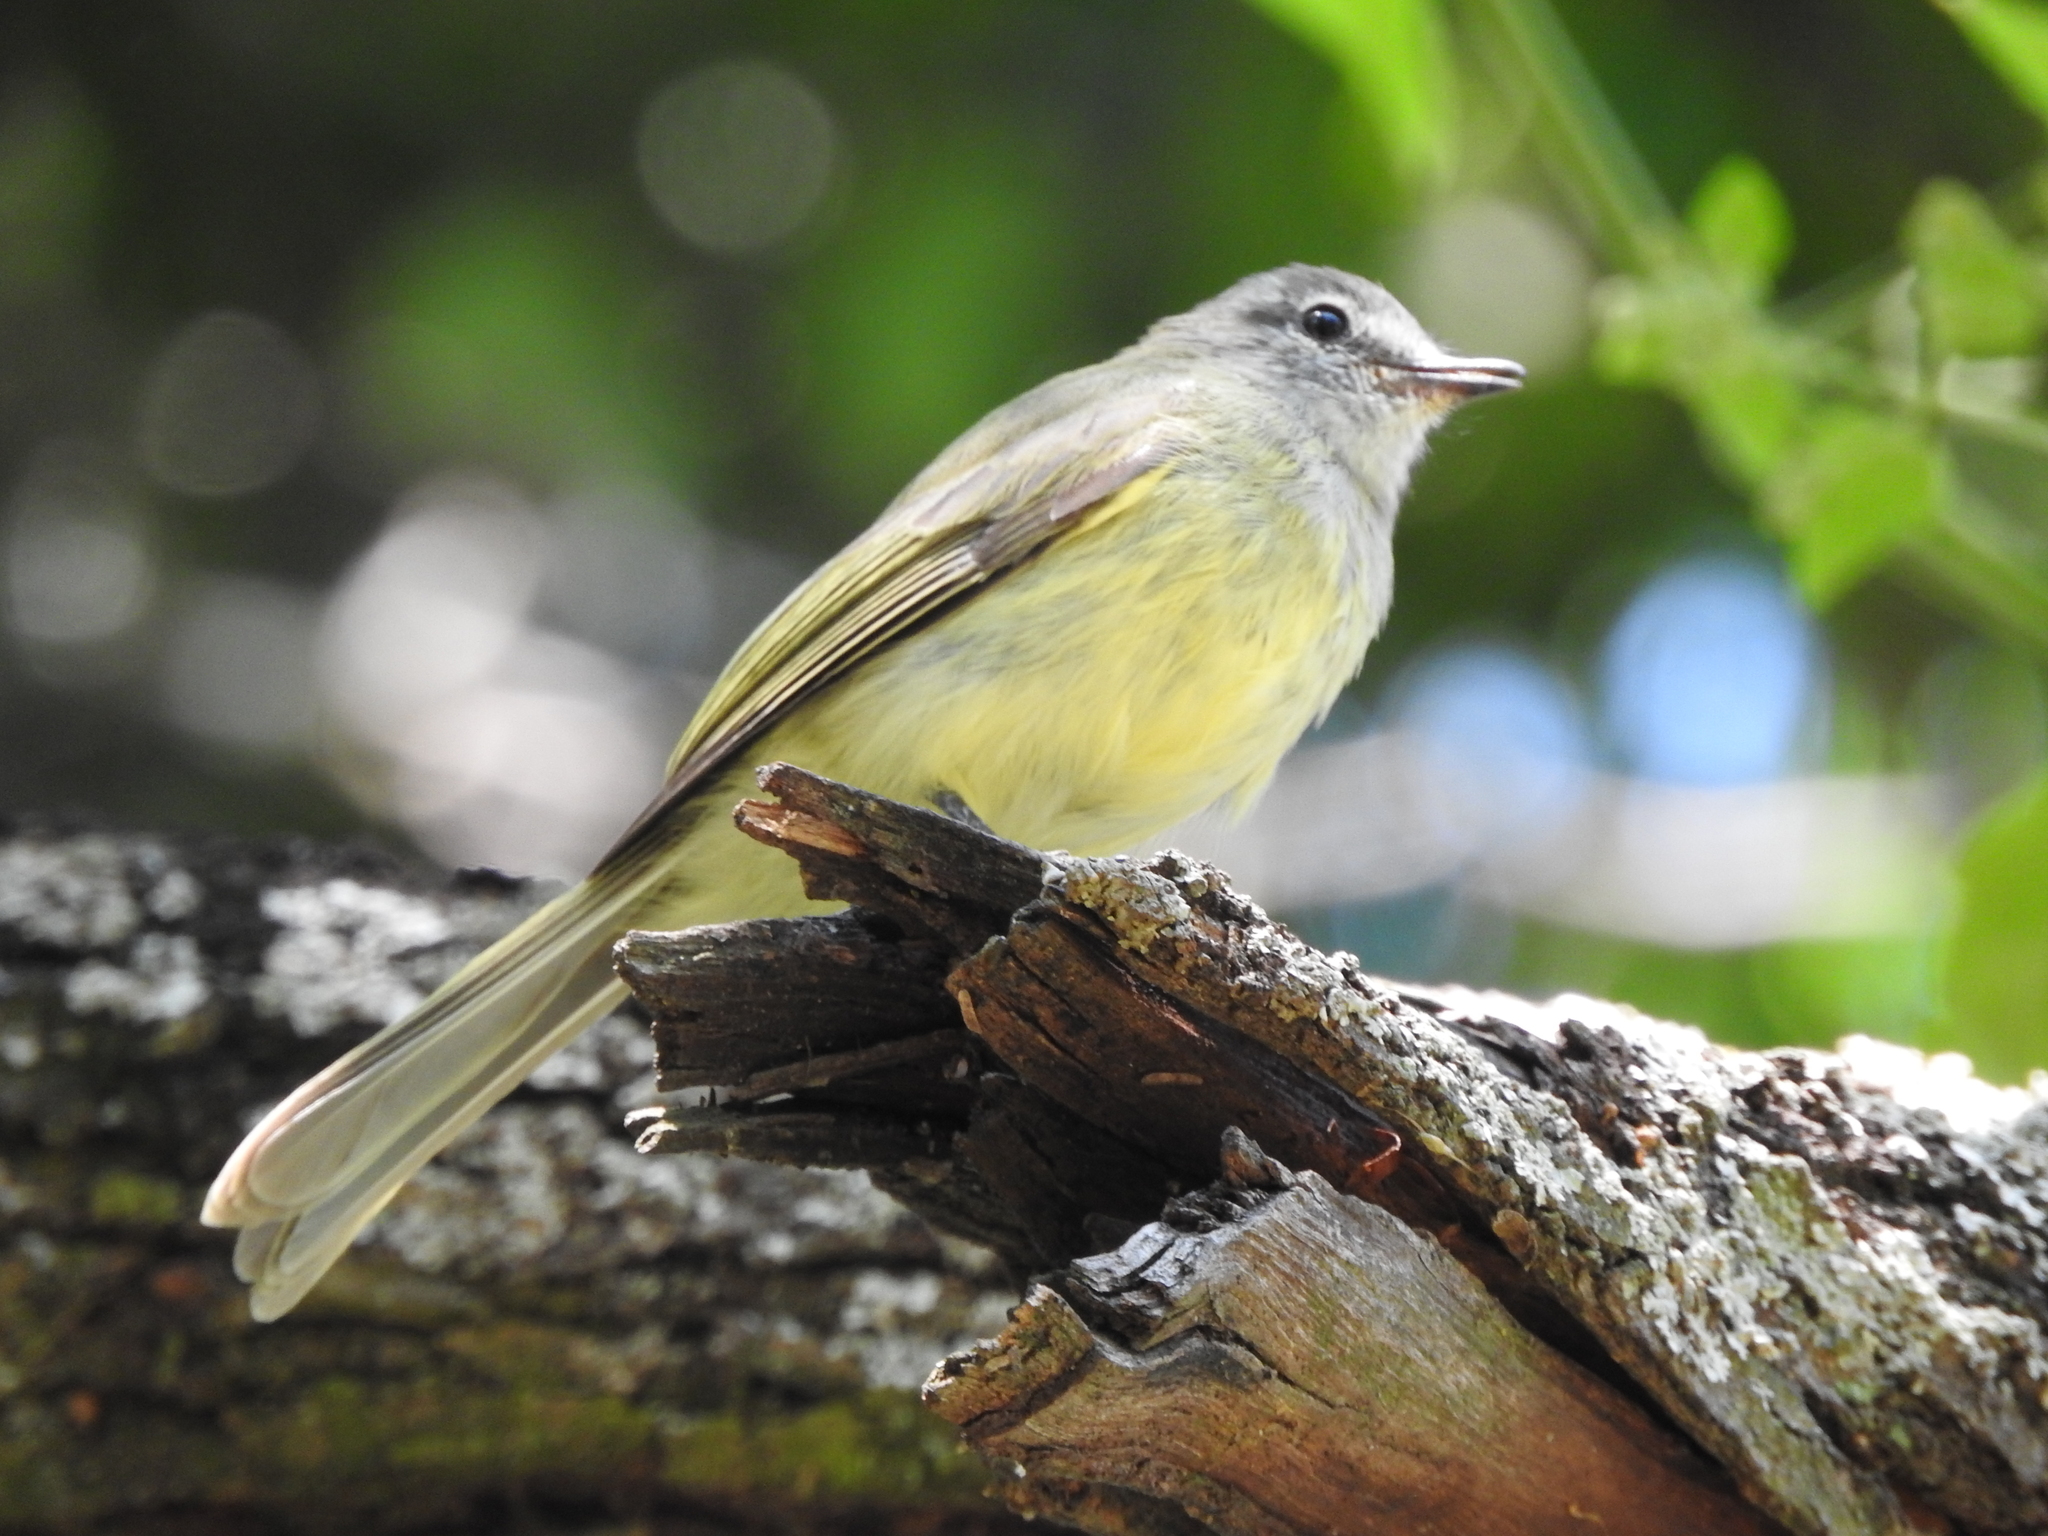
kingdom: Animalia
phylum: Chordata
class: Aves
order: Passeriformes
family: Tyrannidae
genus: Myiopagis
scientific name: Myiopagis viridicata
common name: Greenish elaenia
